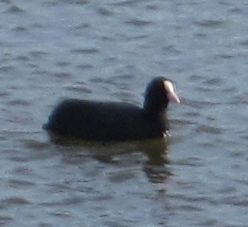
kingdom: Animalia
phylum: Chordata
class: Aves
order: Gruiformes
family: Rallidae
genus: Fulica
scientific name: Fulica atra
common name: Eurasian coot
